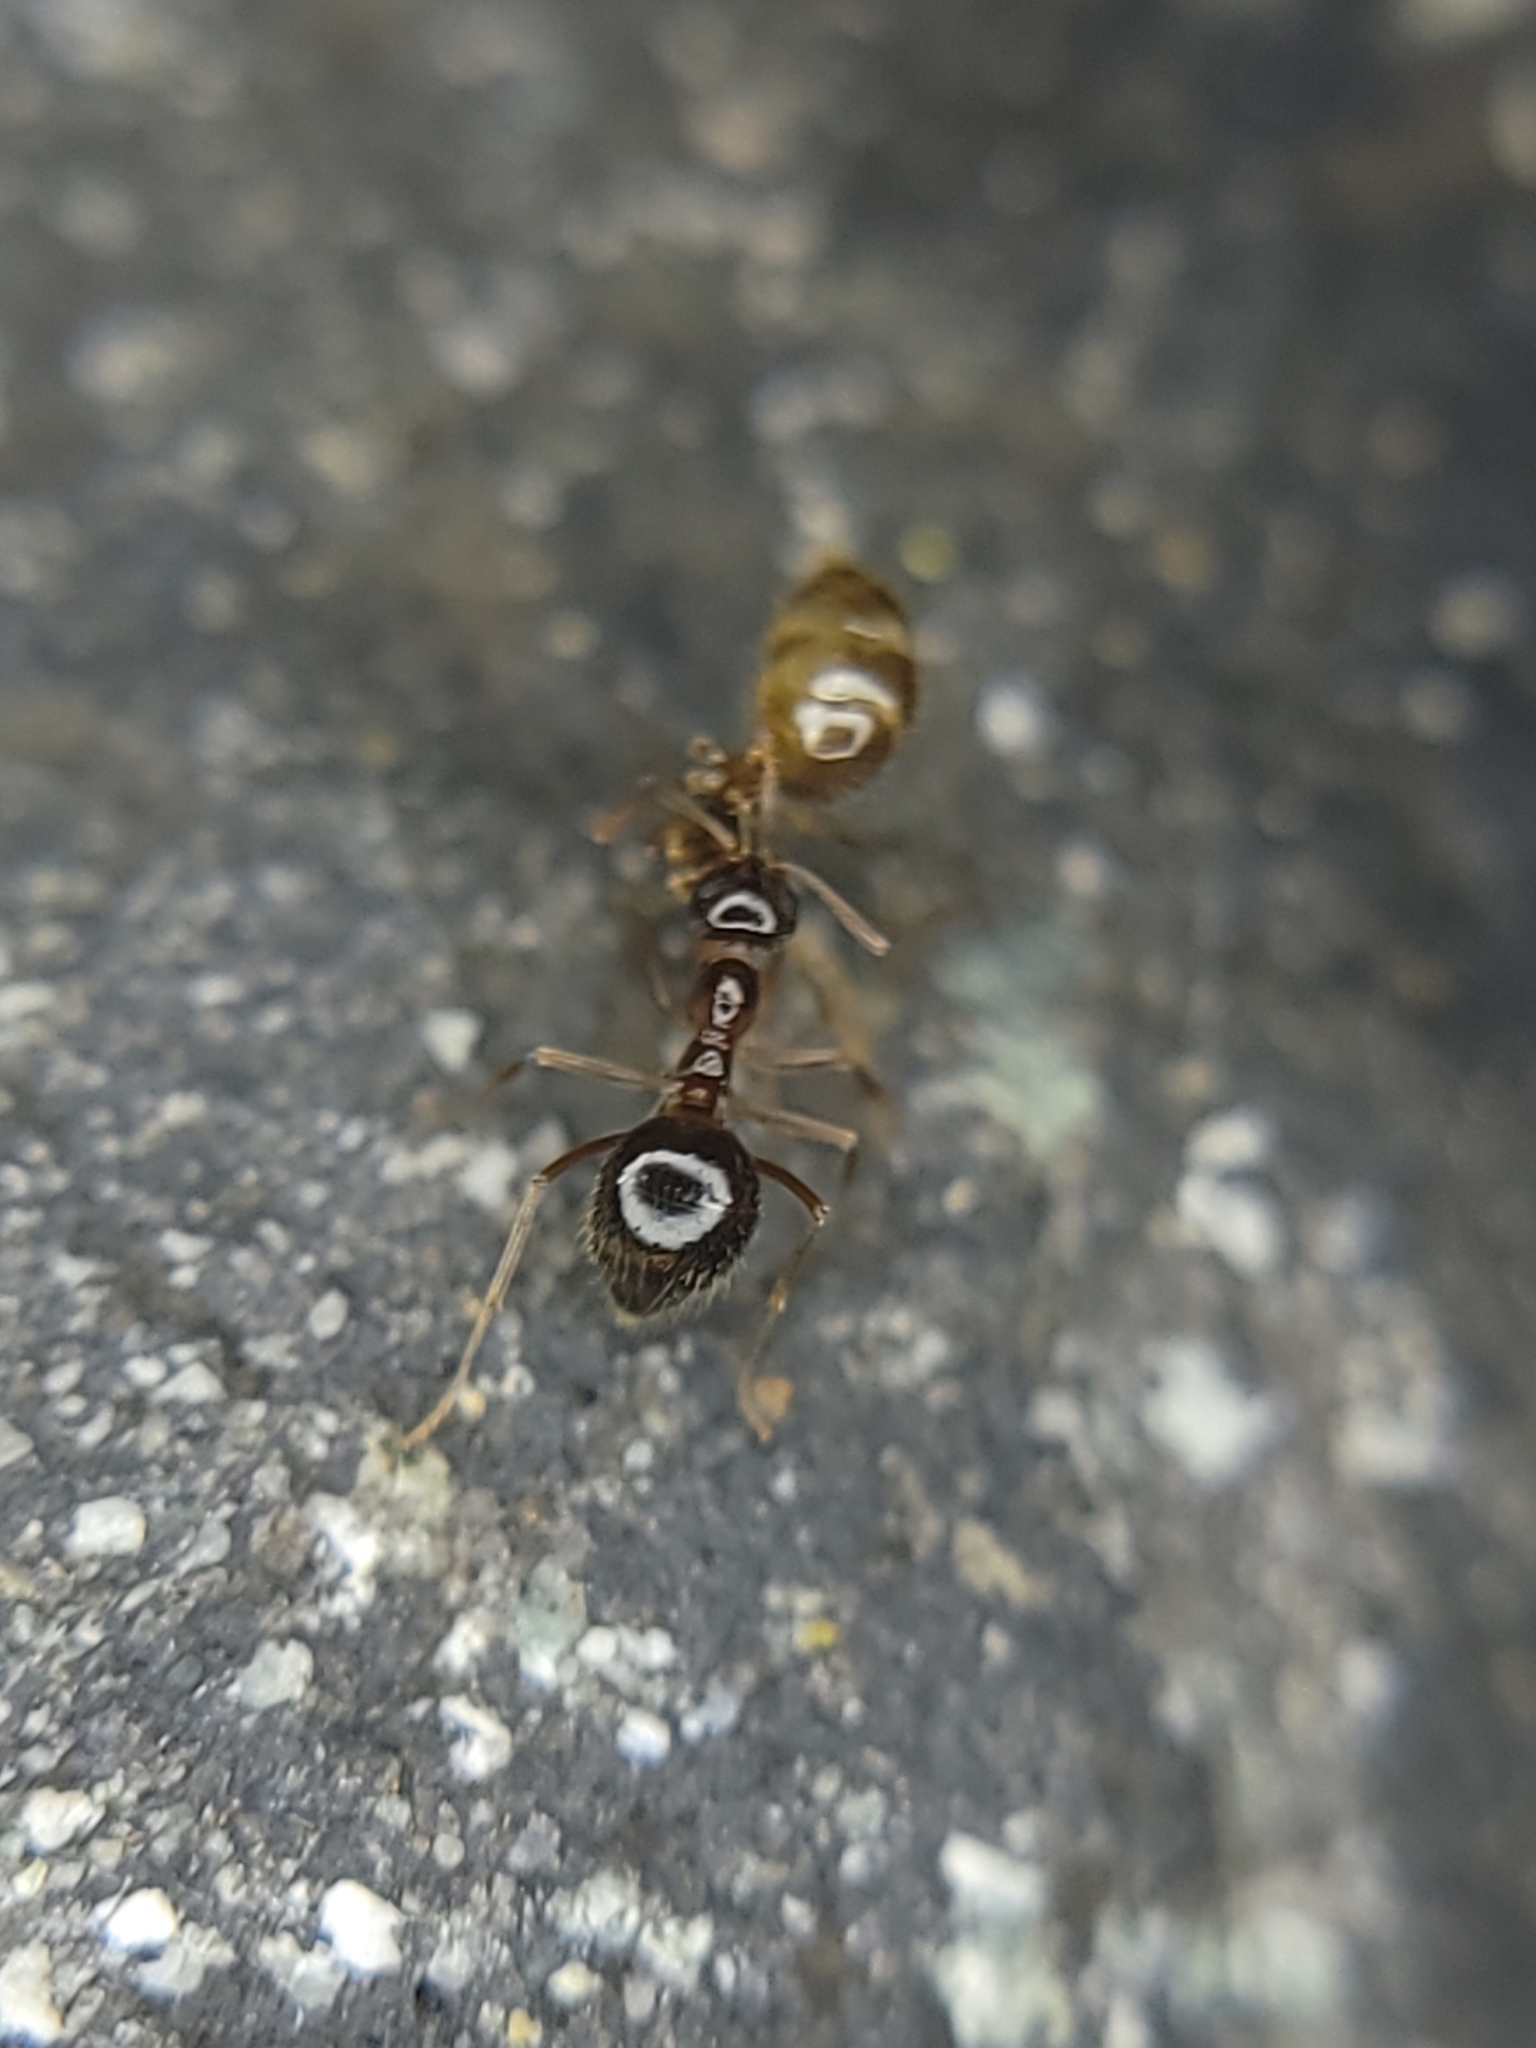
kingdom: Animalia
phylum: Arthropoda
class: Insecta
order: Hymenoptera
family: Formicidae
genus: Prenolepis
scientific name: Prenolepis imparis
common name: Small honey ant
